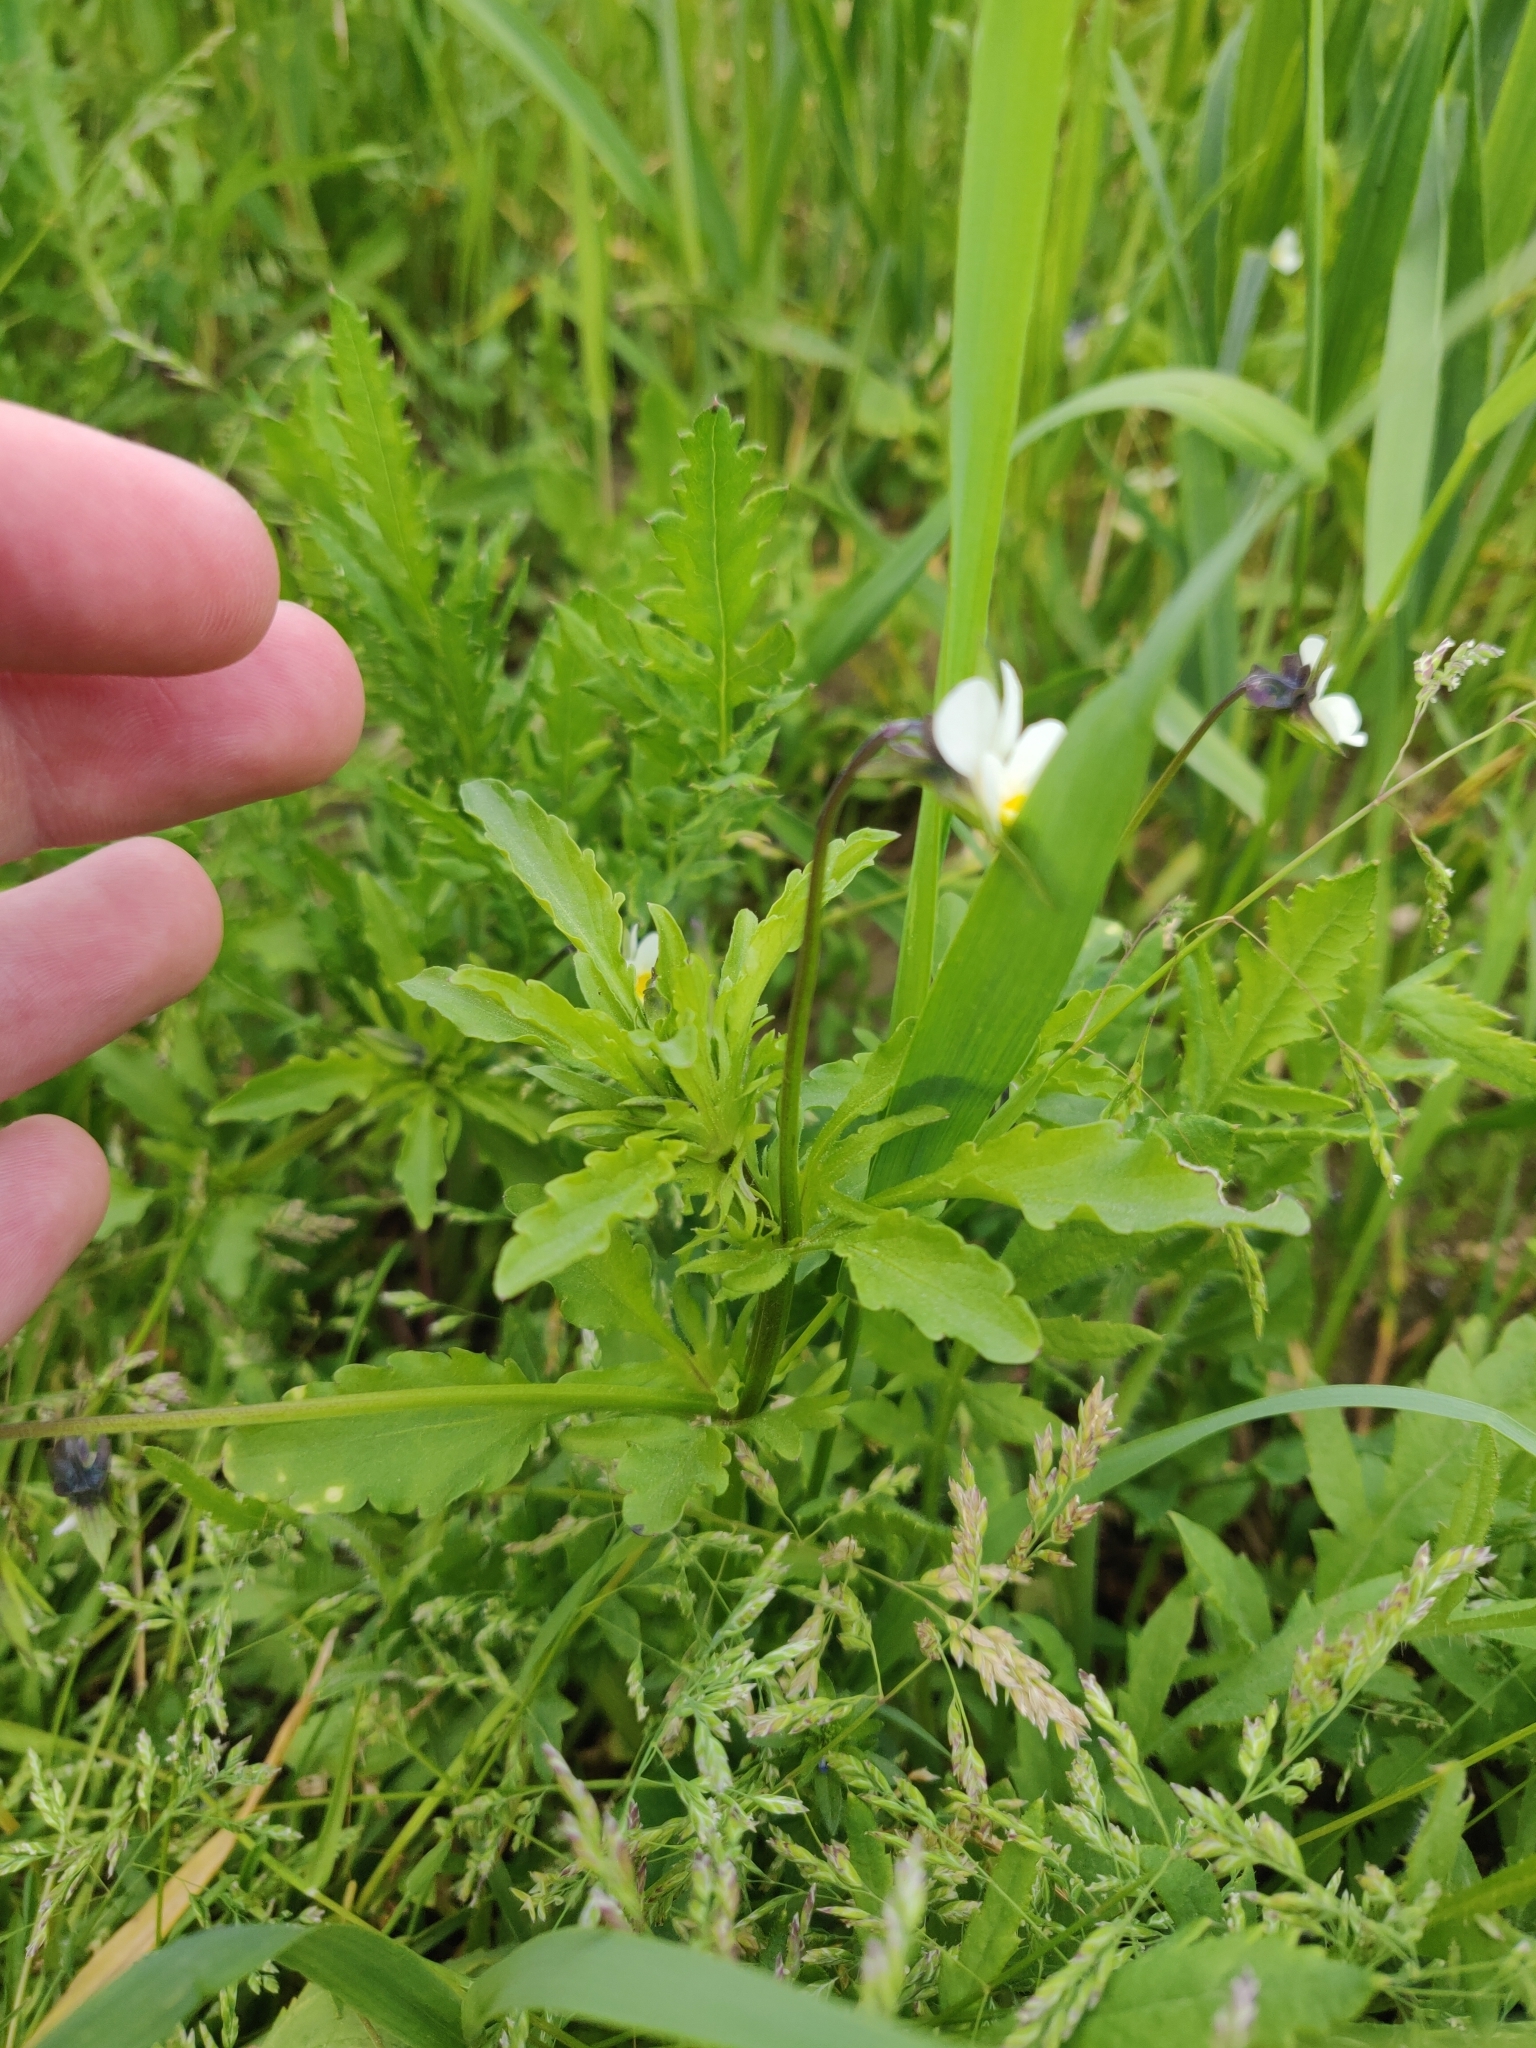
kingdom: Plantae
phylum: Tracheophyta
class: Magnoliopsida
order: Malpighiales
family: Violaceae
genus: Viola
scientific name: Viola arvensis
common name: Field pansy
